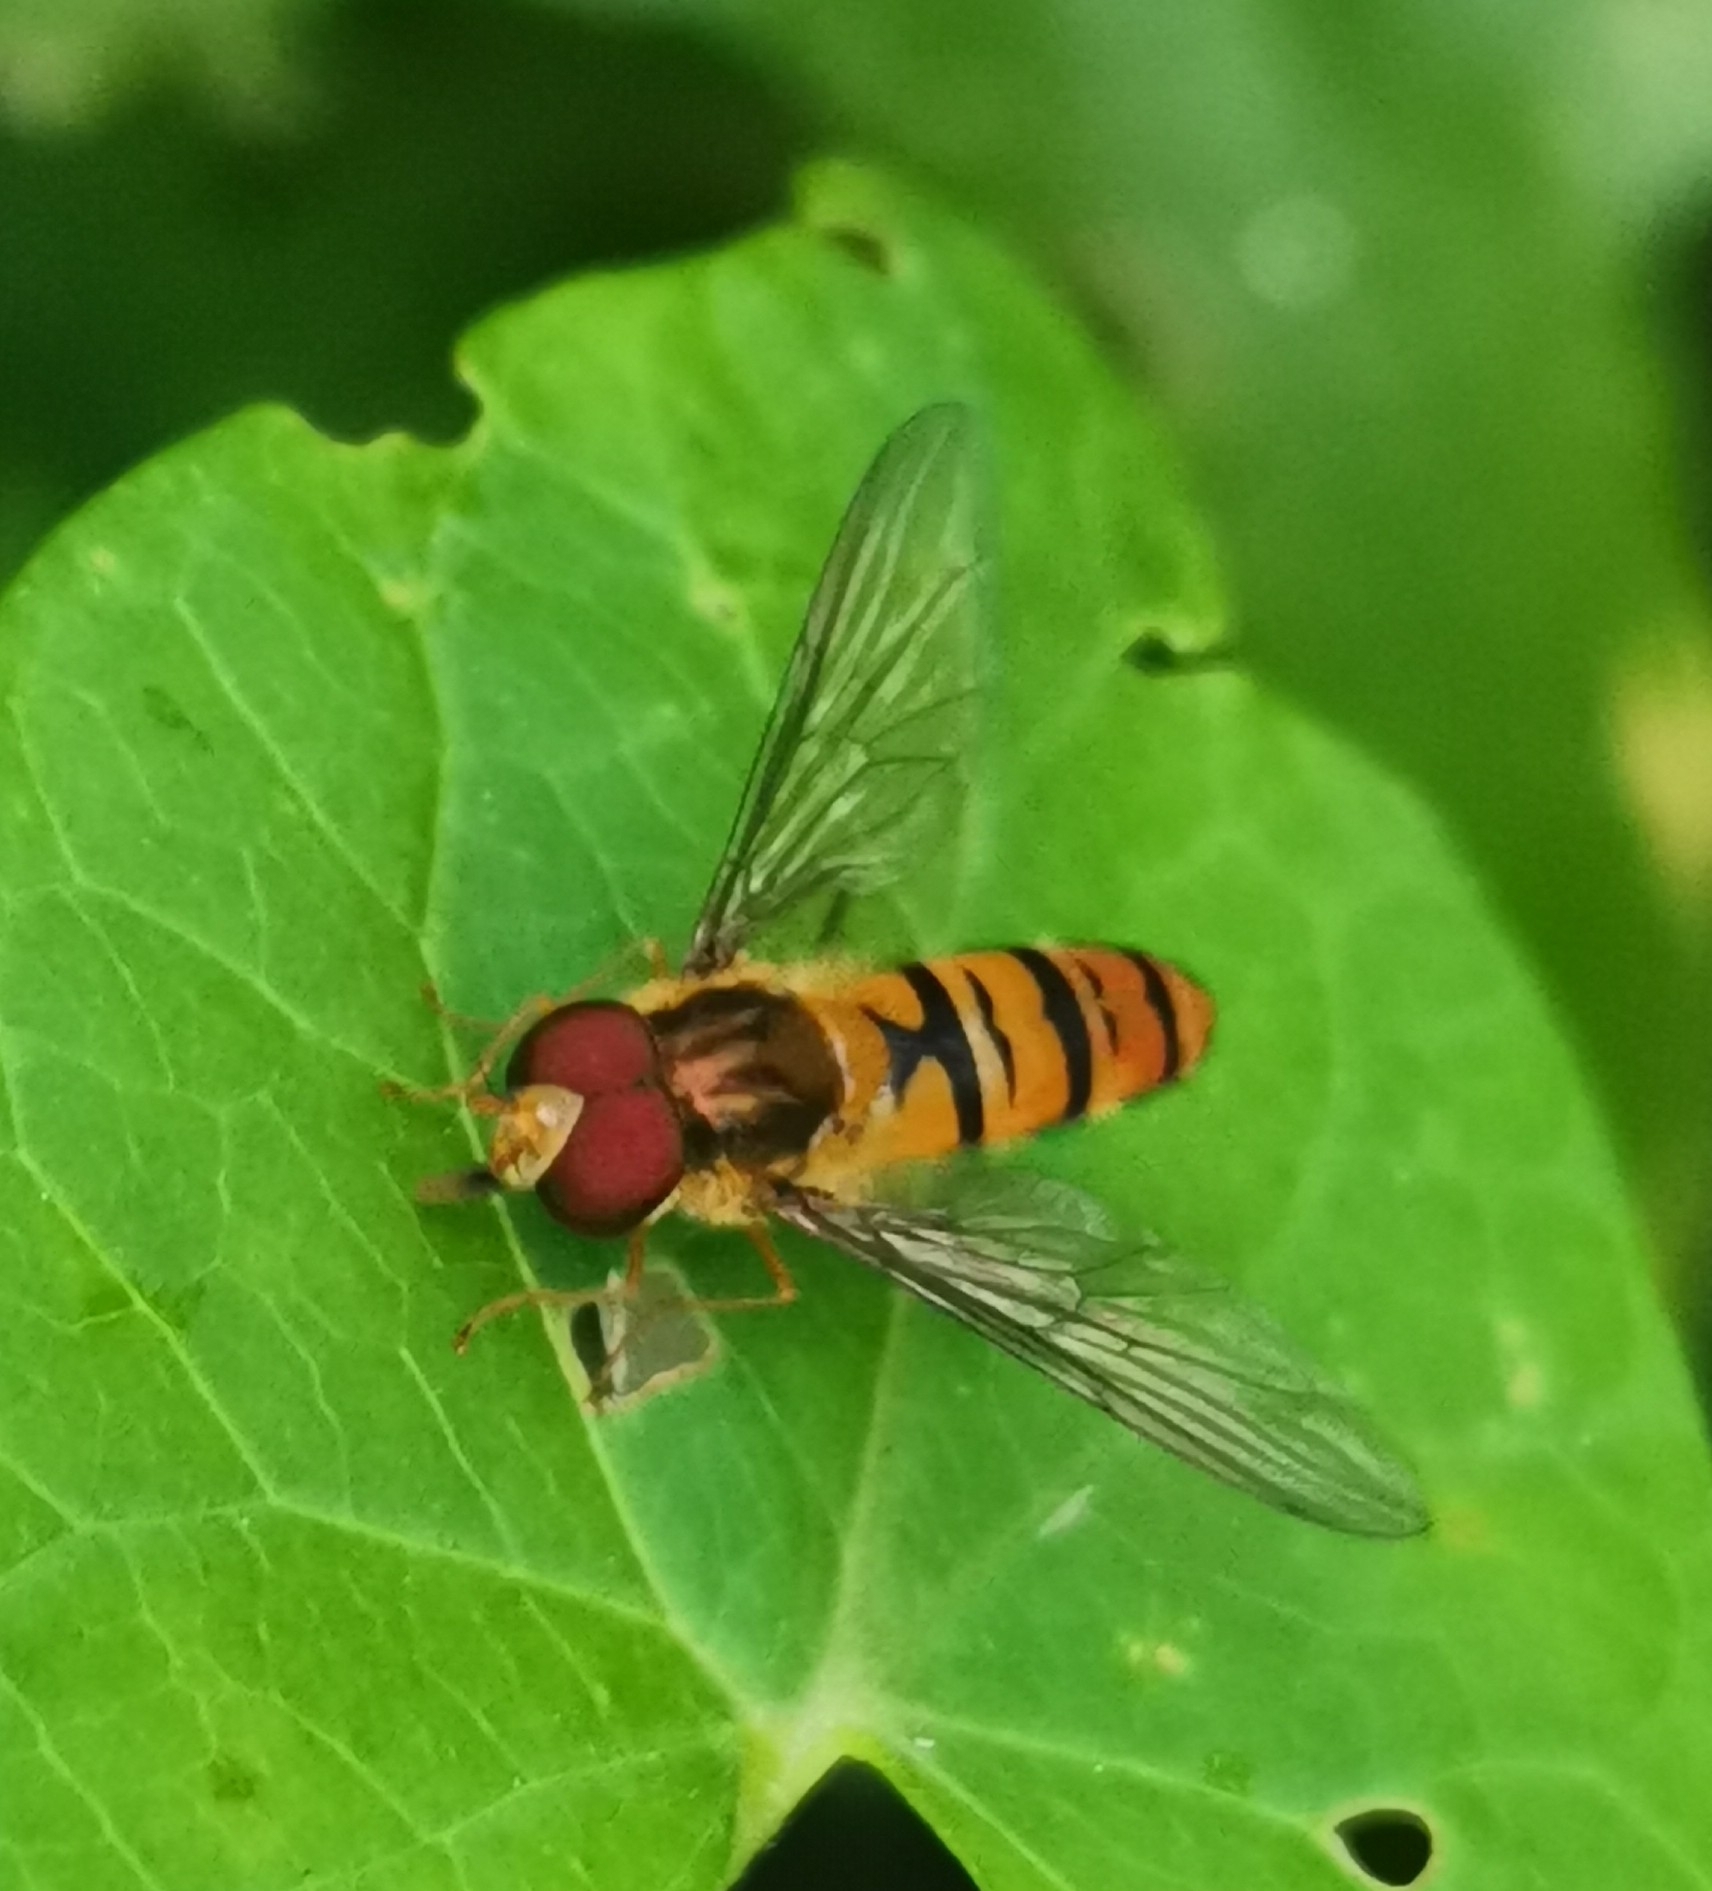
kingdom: Animalia
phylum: Arthropoda
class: Insecta
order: Diptera
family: Syrphidae
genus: Episyrphus
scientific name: Episyrphus balteatus
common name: Marmalade hoverfly
